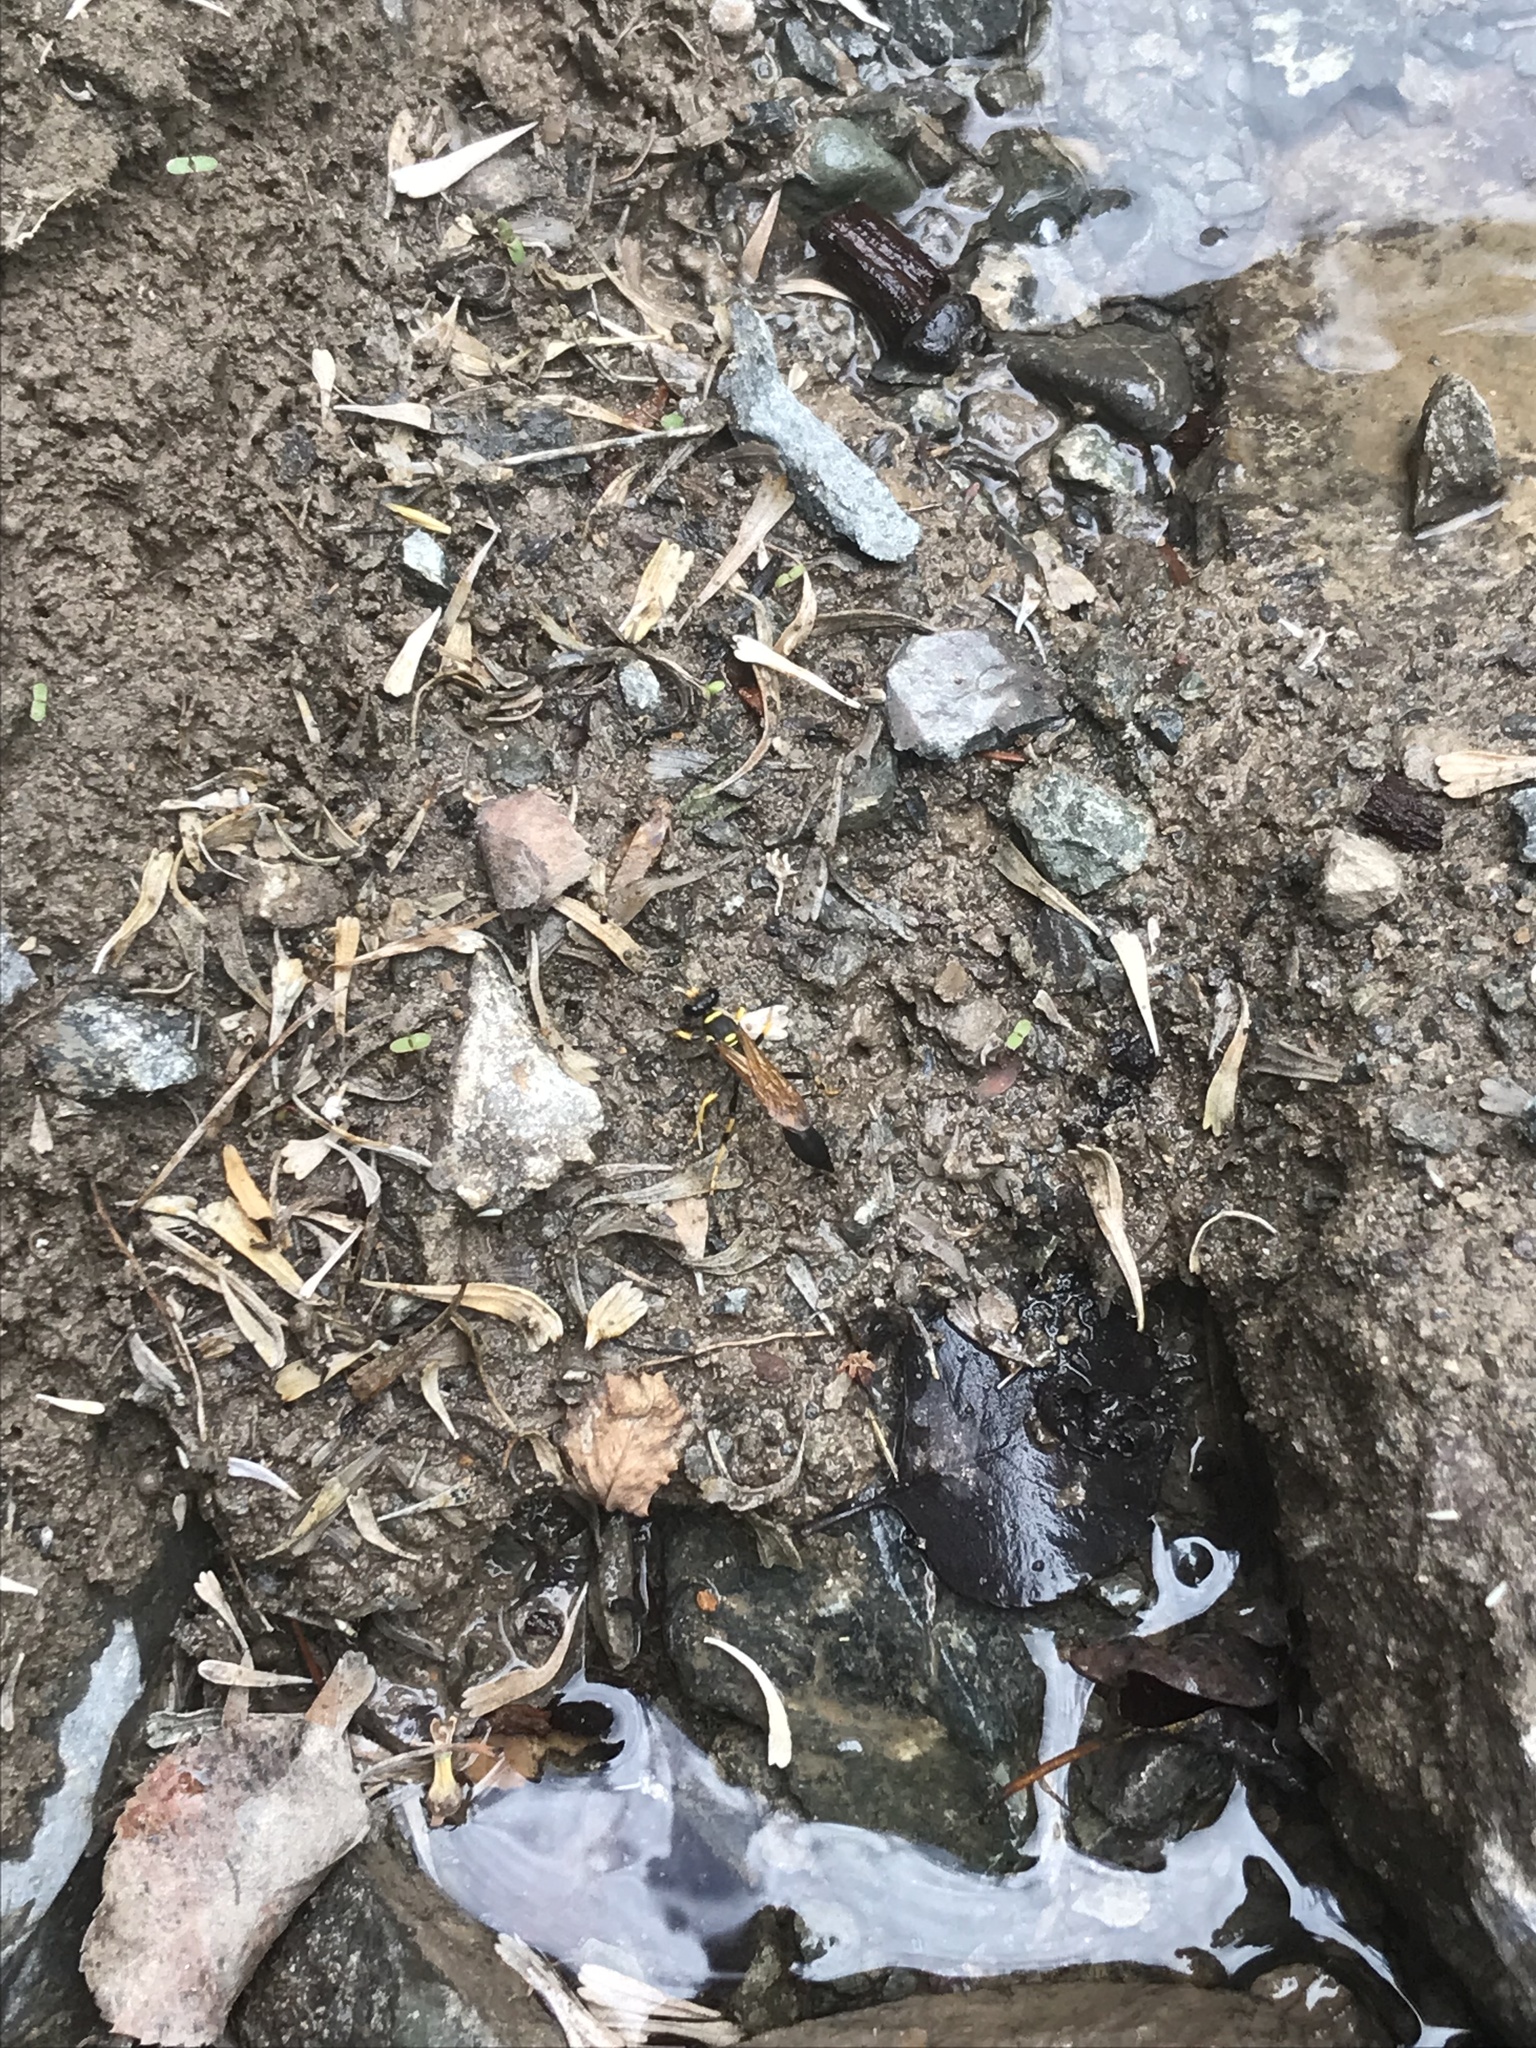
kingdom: Animalia
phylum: Arthropoda
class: Insecta
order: Hymenoptera
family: Sphecidae
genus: Sceliphron
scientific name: Sceliphron caementarium
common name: Mud dauber
